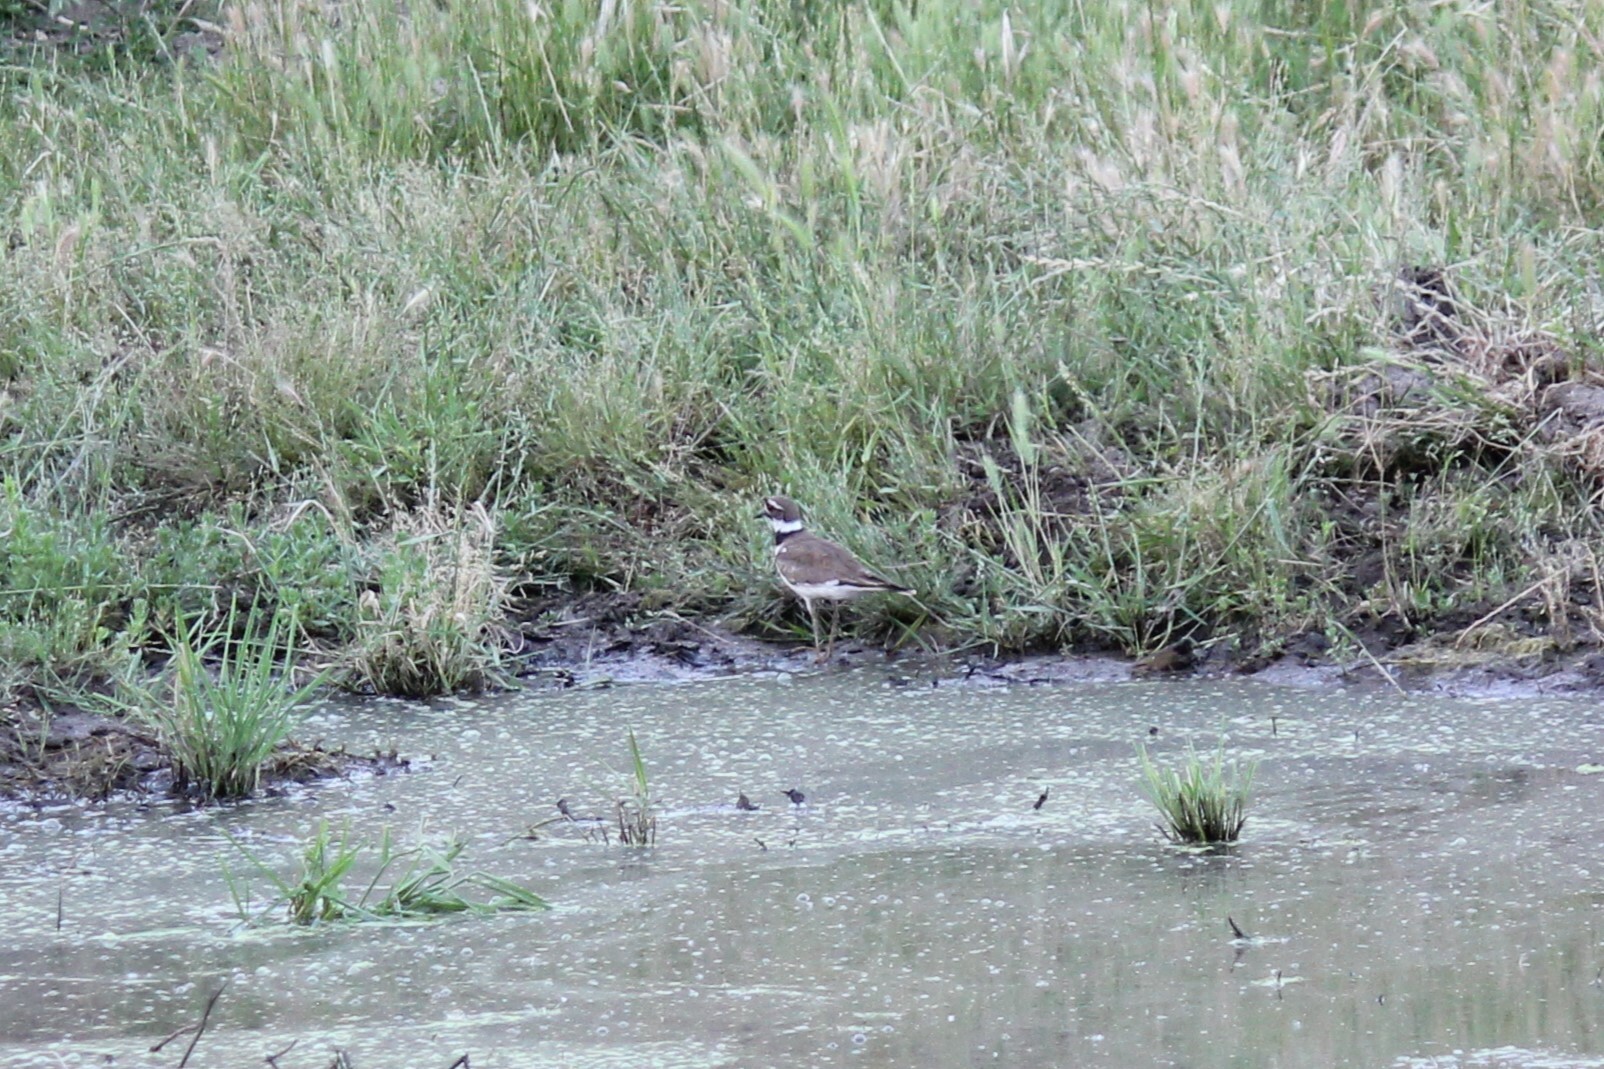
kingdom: Animalia
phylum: Chordata
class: Aves
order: Charadriiformes
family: Charadriidae
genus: Charadrius
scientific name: Charadrius vociferus
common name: Killdeer
